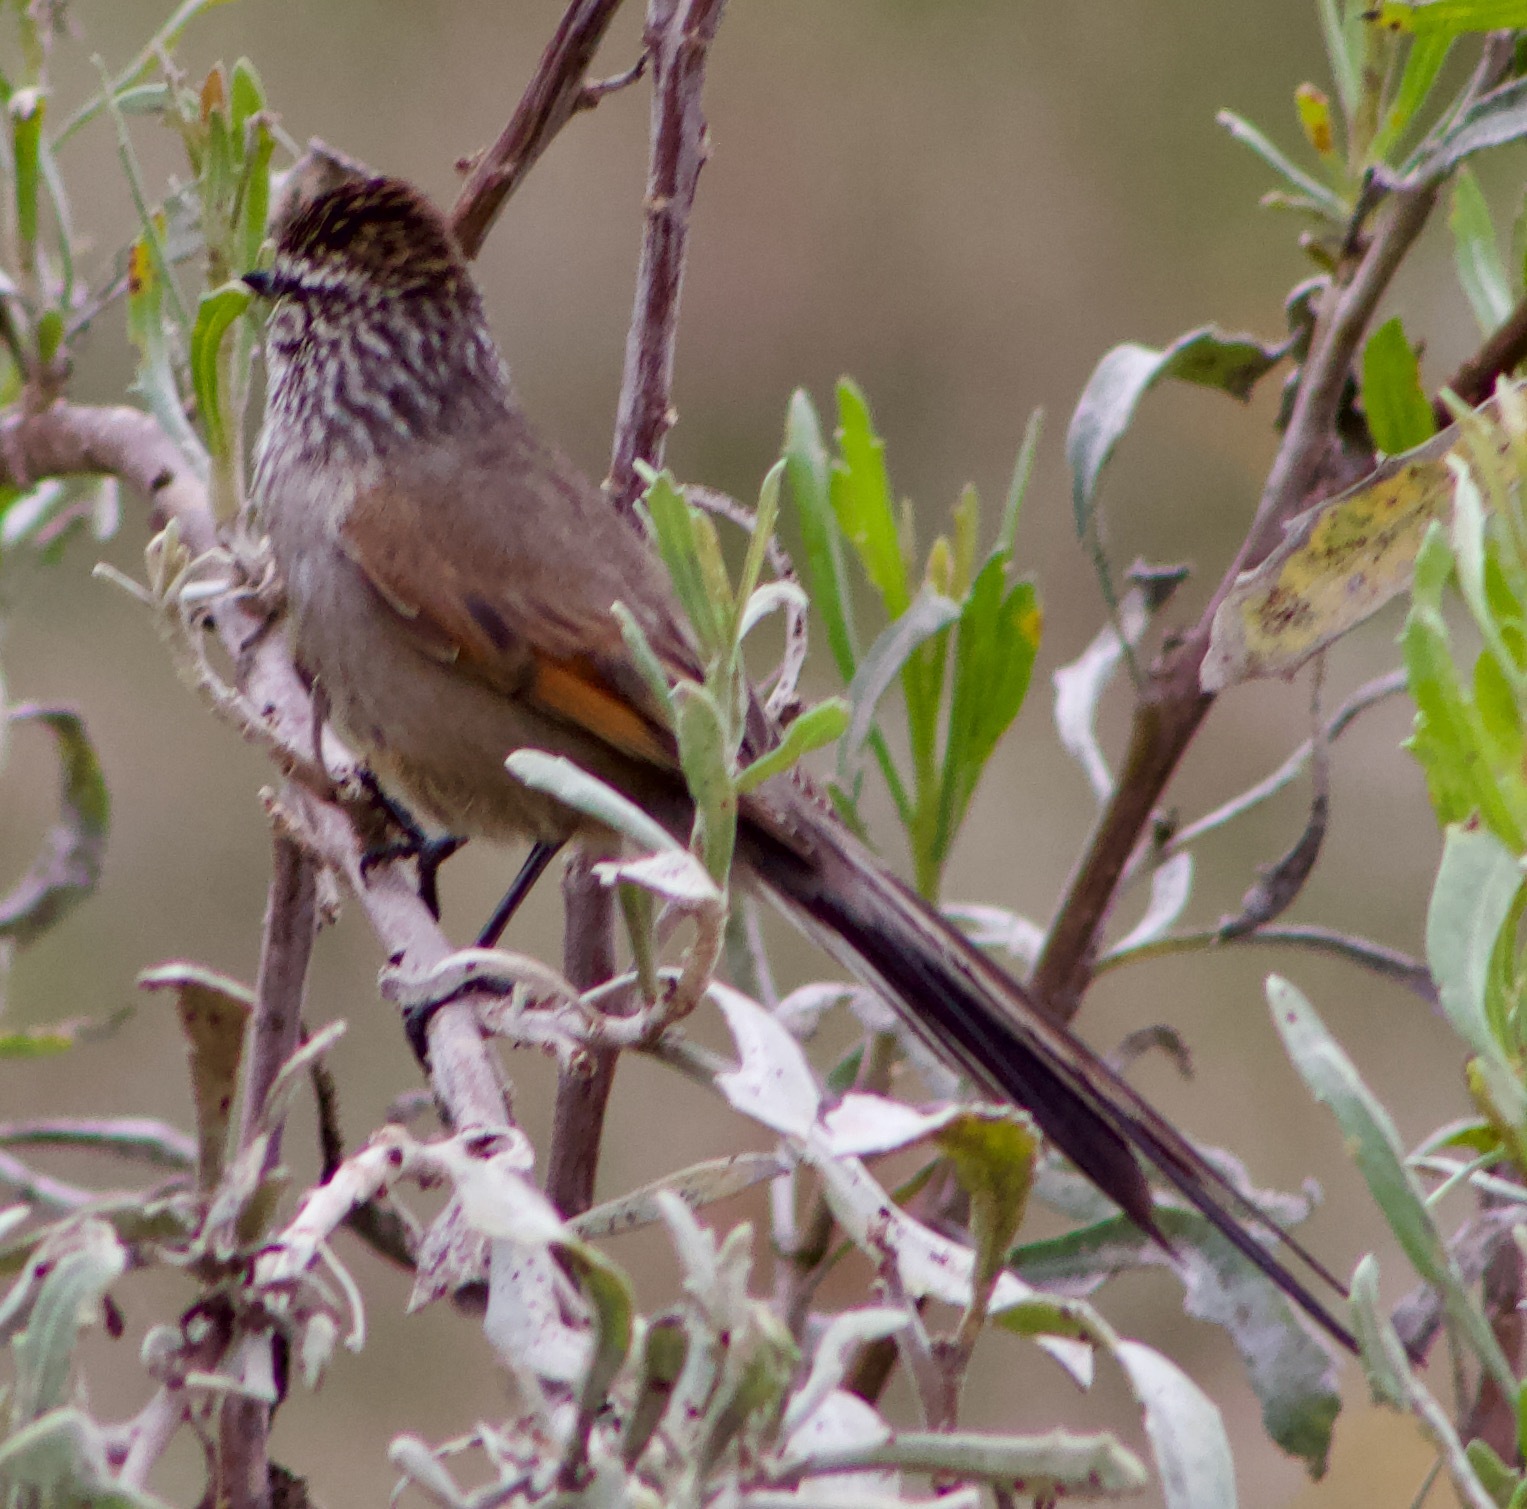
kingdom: Animalia
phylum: Chordata
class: Aves
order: Passeriformes
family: Furnariidae
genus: Leptasthenura
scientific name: Leptasthenura aegithaloides
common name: Plain-mantled tit-spinetail
